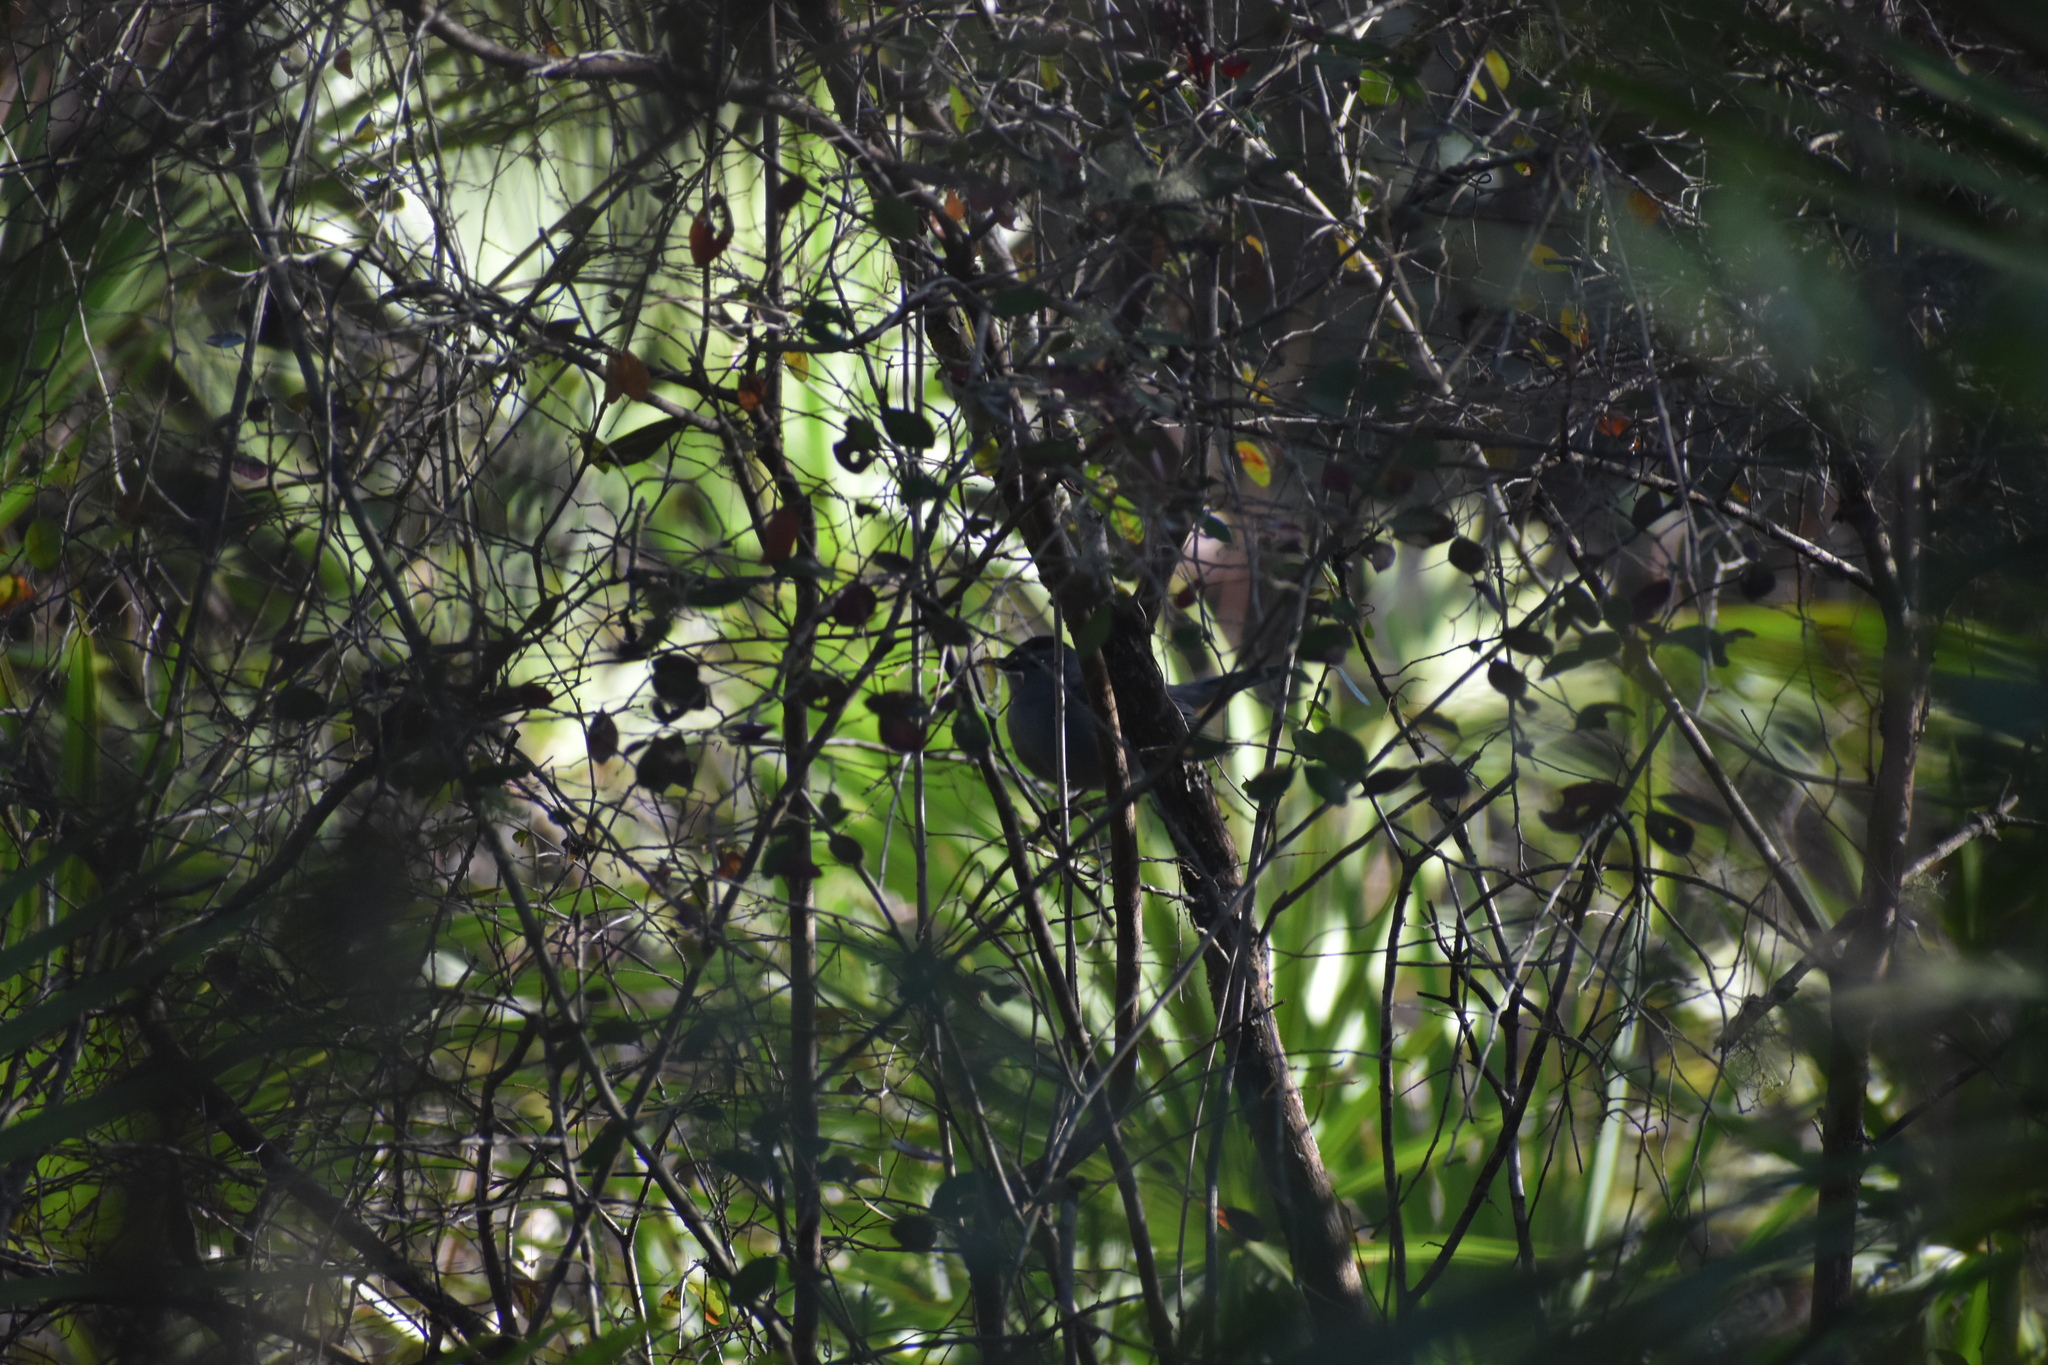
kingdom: Animalia
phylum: Chordata
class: Aves
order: Passeriformes
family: Mimidae
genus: Dumetella
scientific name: Dumetella carolinensis
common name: Gray catbird
